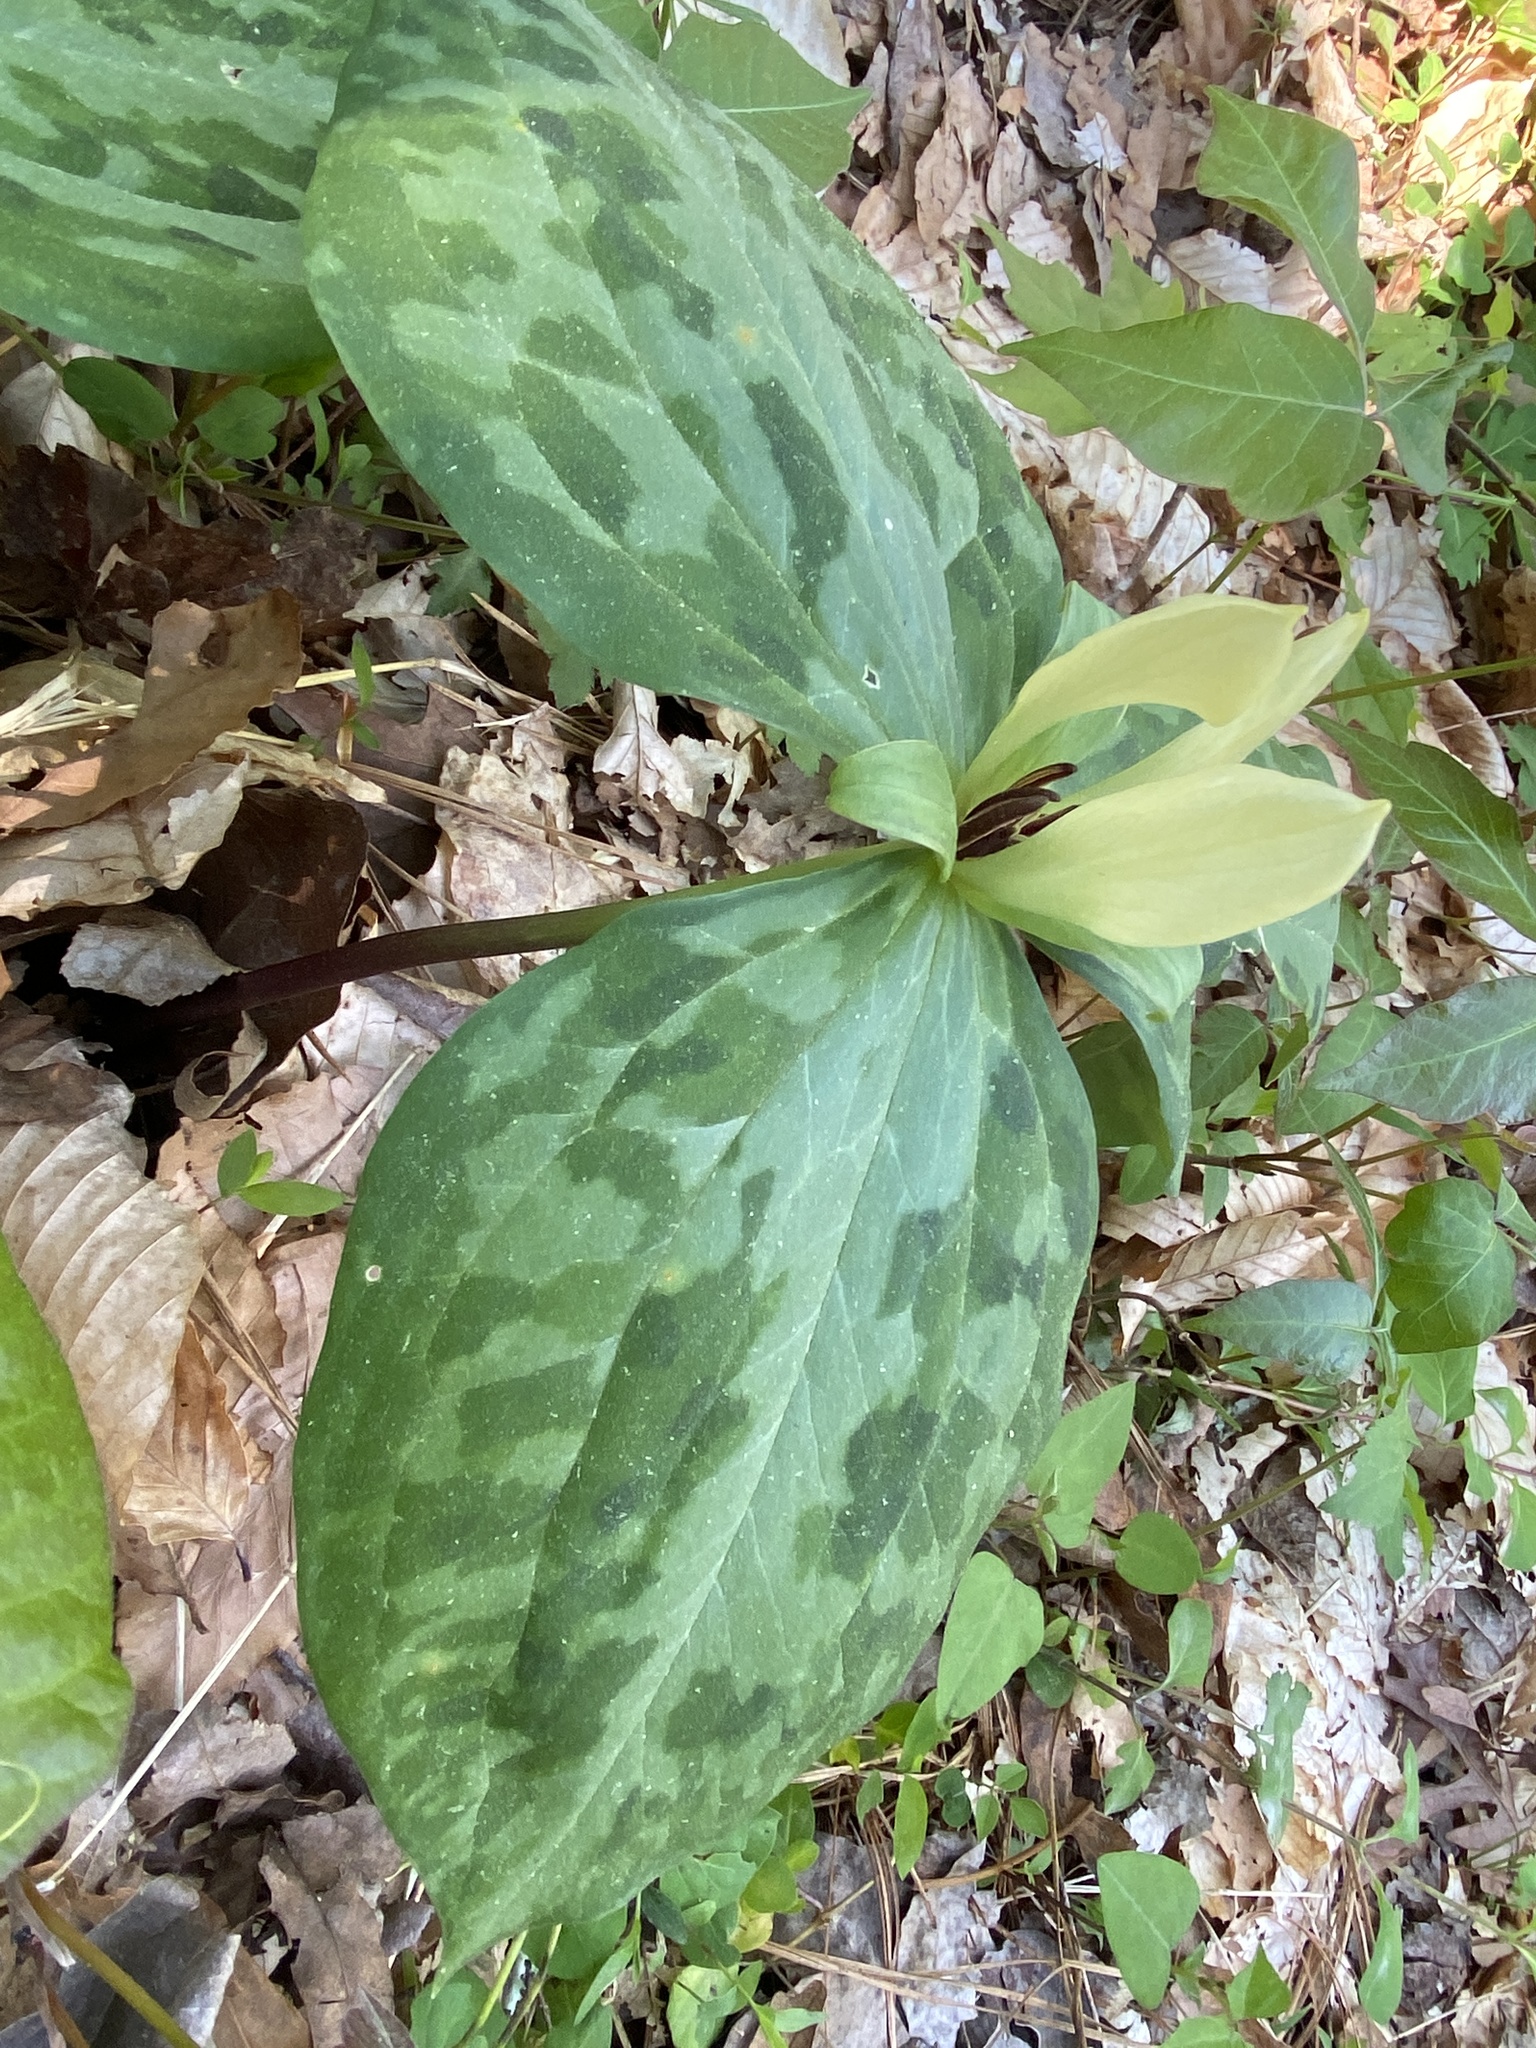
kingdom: Plantae
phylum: Tracheophyta
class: Liliopsida
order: Liliales
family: Melanthiaceae
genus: Trillium
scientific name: Trillium discolor
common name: Faded trillium
